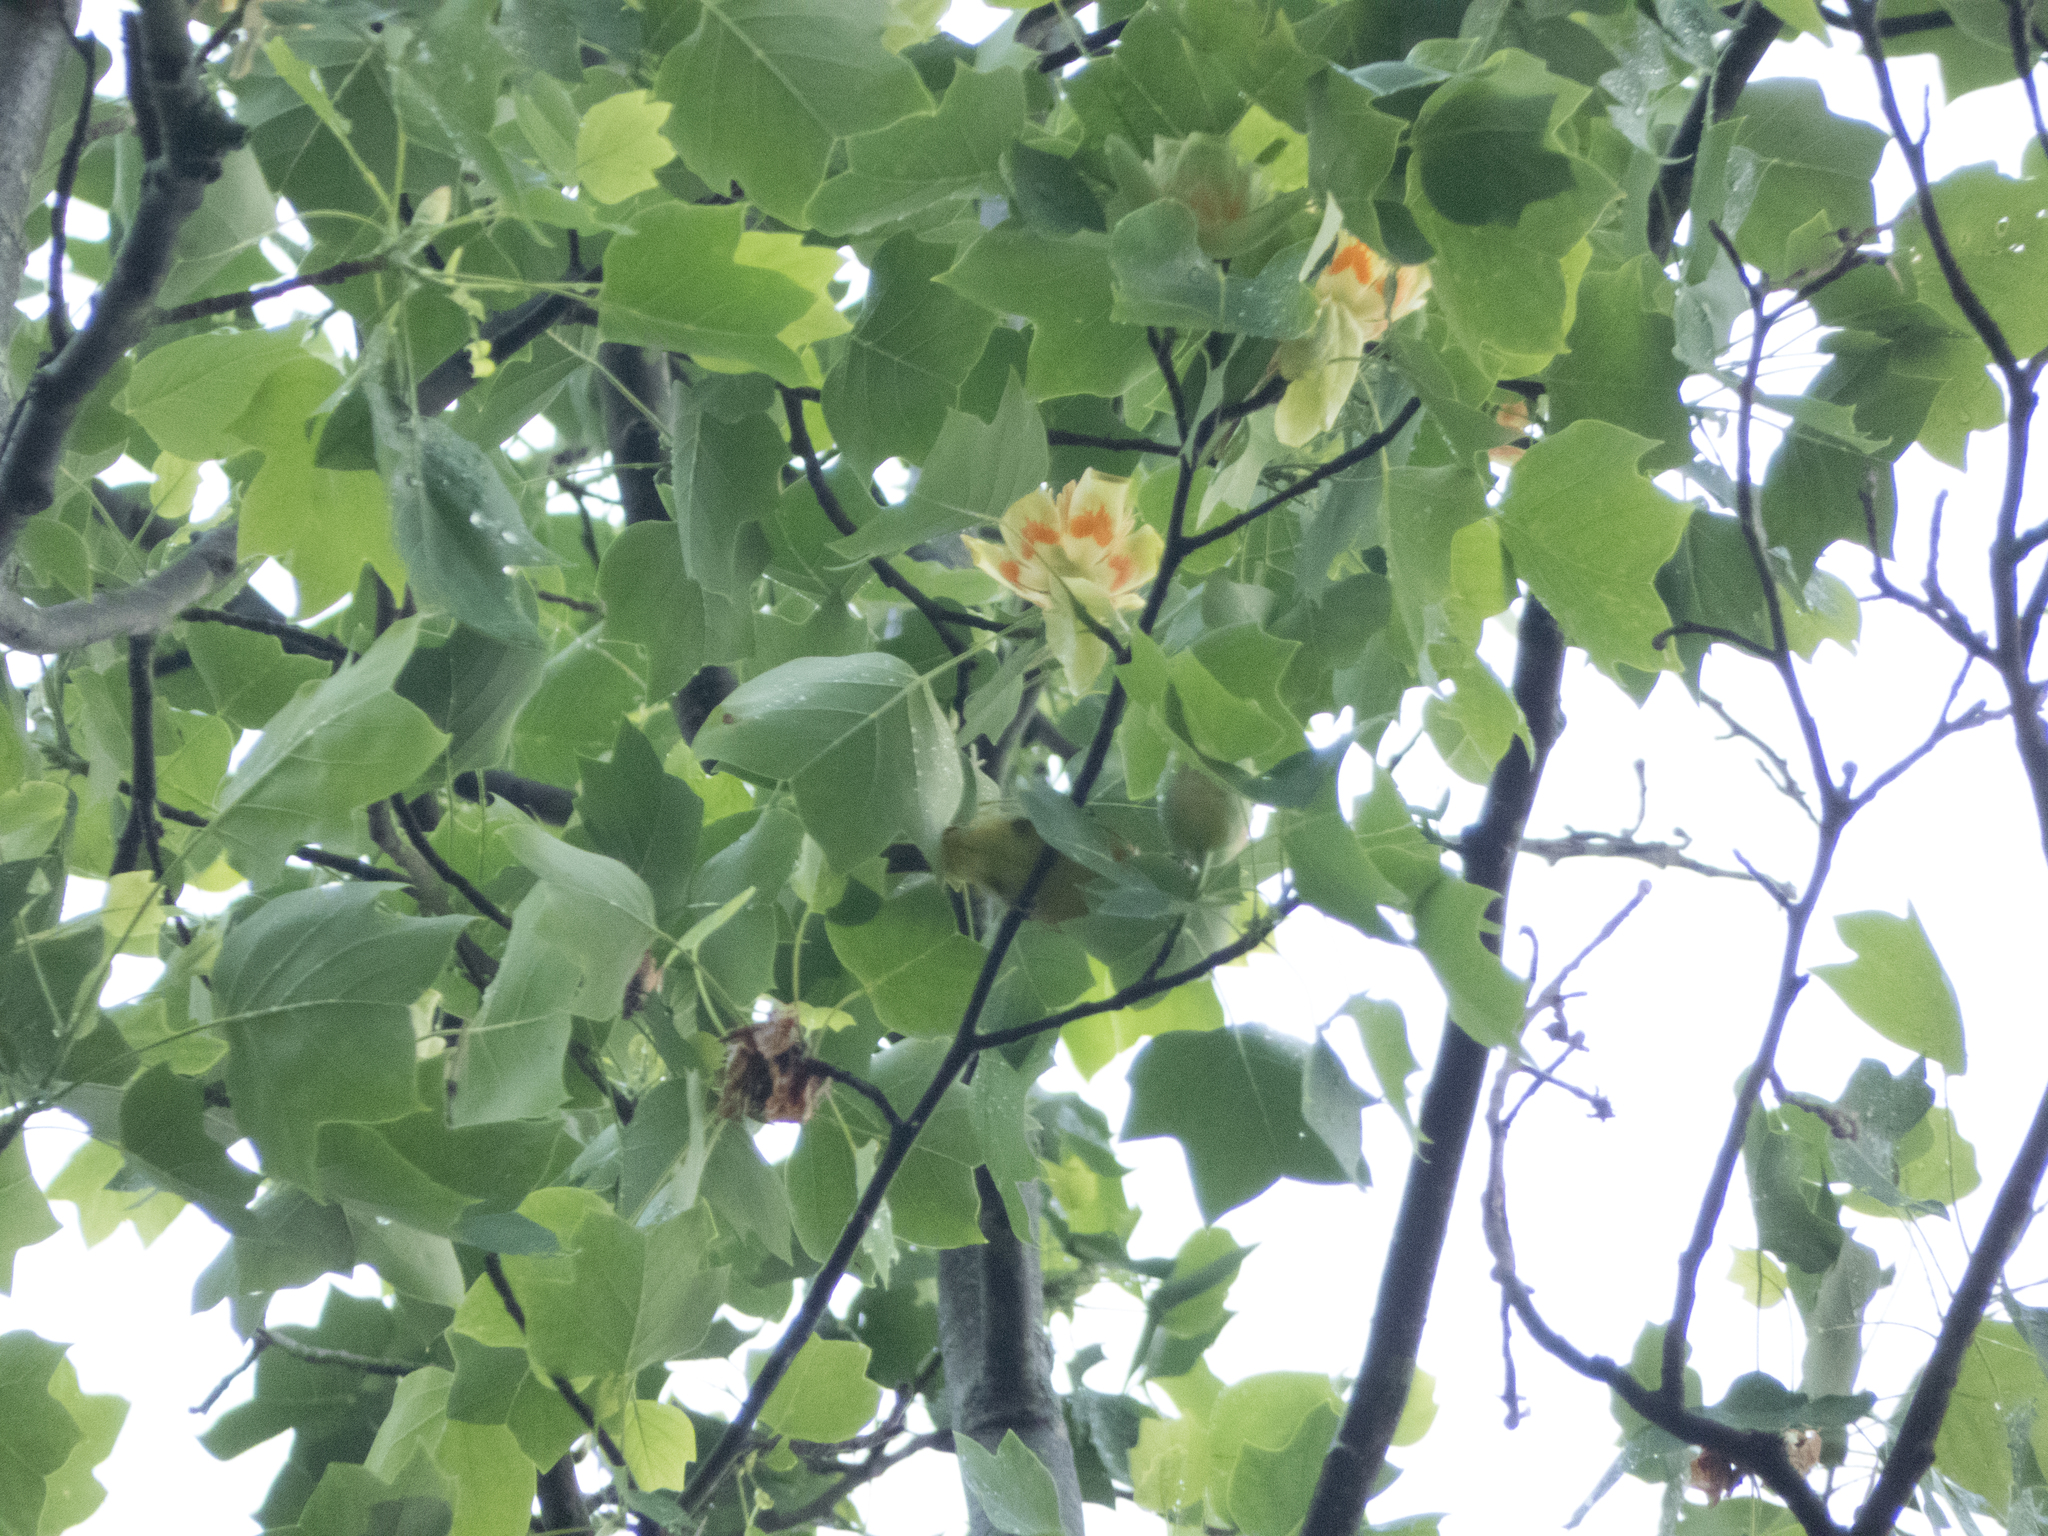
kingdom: Plantae
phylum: Tracheophyta
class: Magnoliopsida
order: Magnoliales
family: Magnoliaceae
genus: Liriodendron
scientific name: Liriodendron tulipifera
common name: Tulip tree
